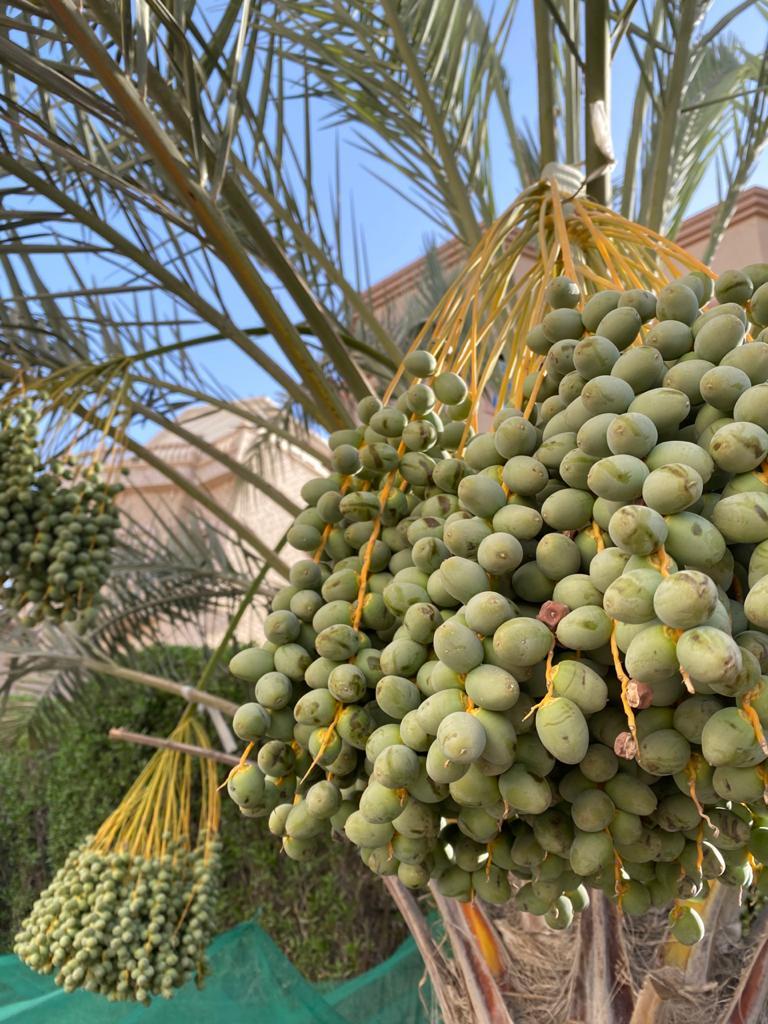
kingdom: Plantae
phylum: Tracheophyta
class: Liliopsida
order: Arecales
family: Arecaceae
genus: Phoenix
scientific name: Phoenix dactylifera
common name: Date palm
